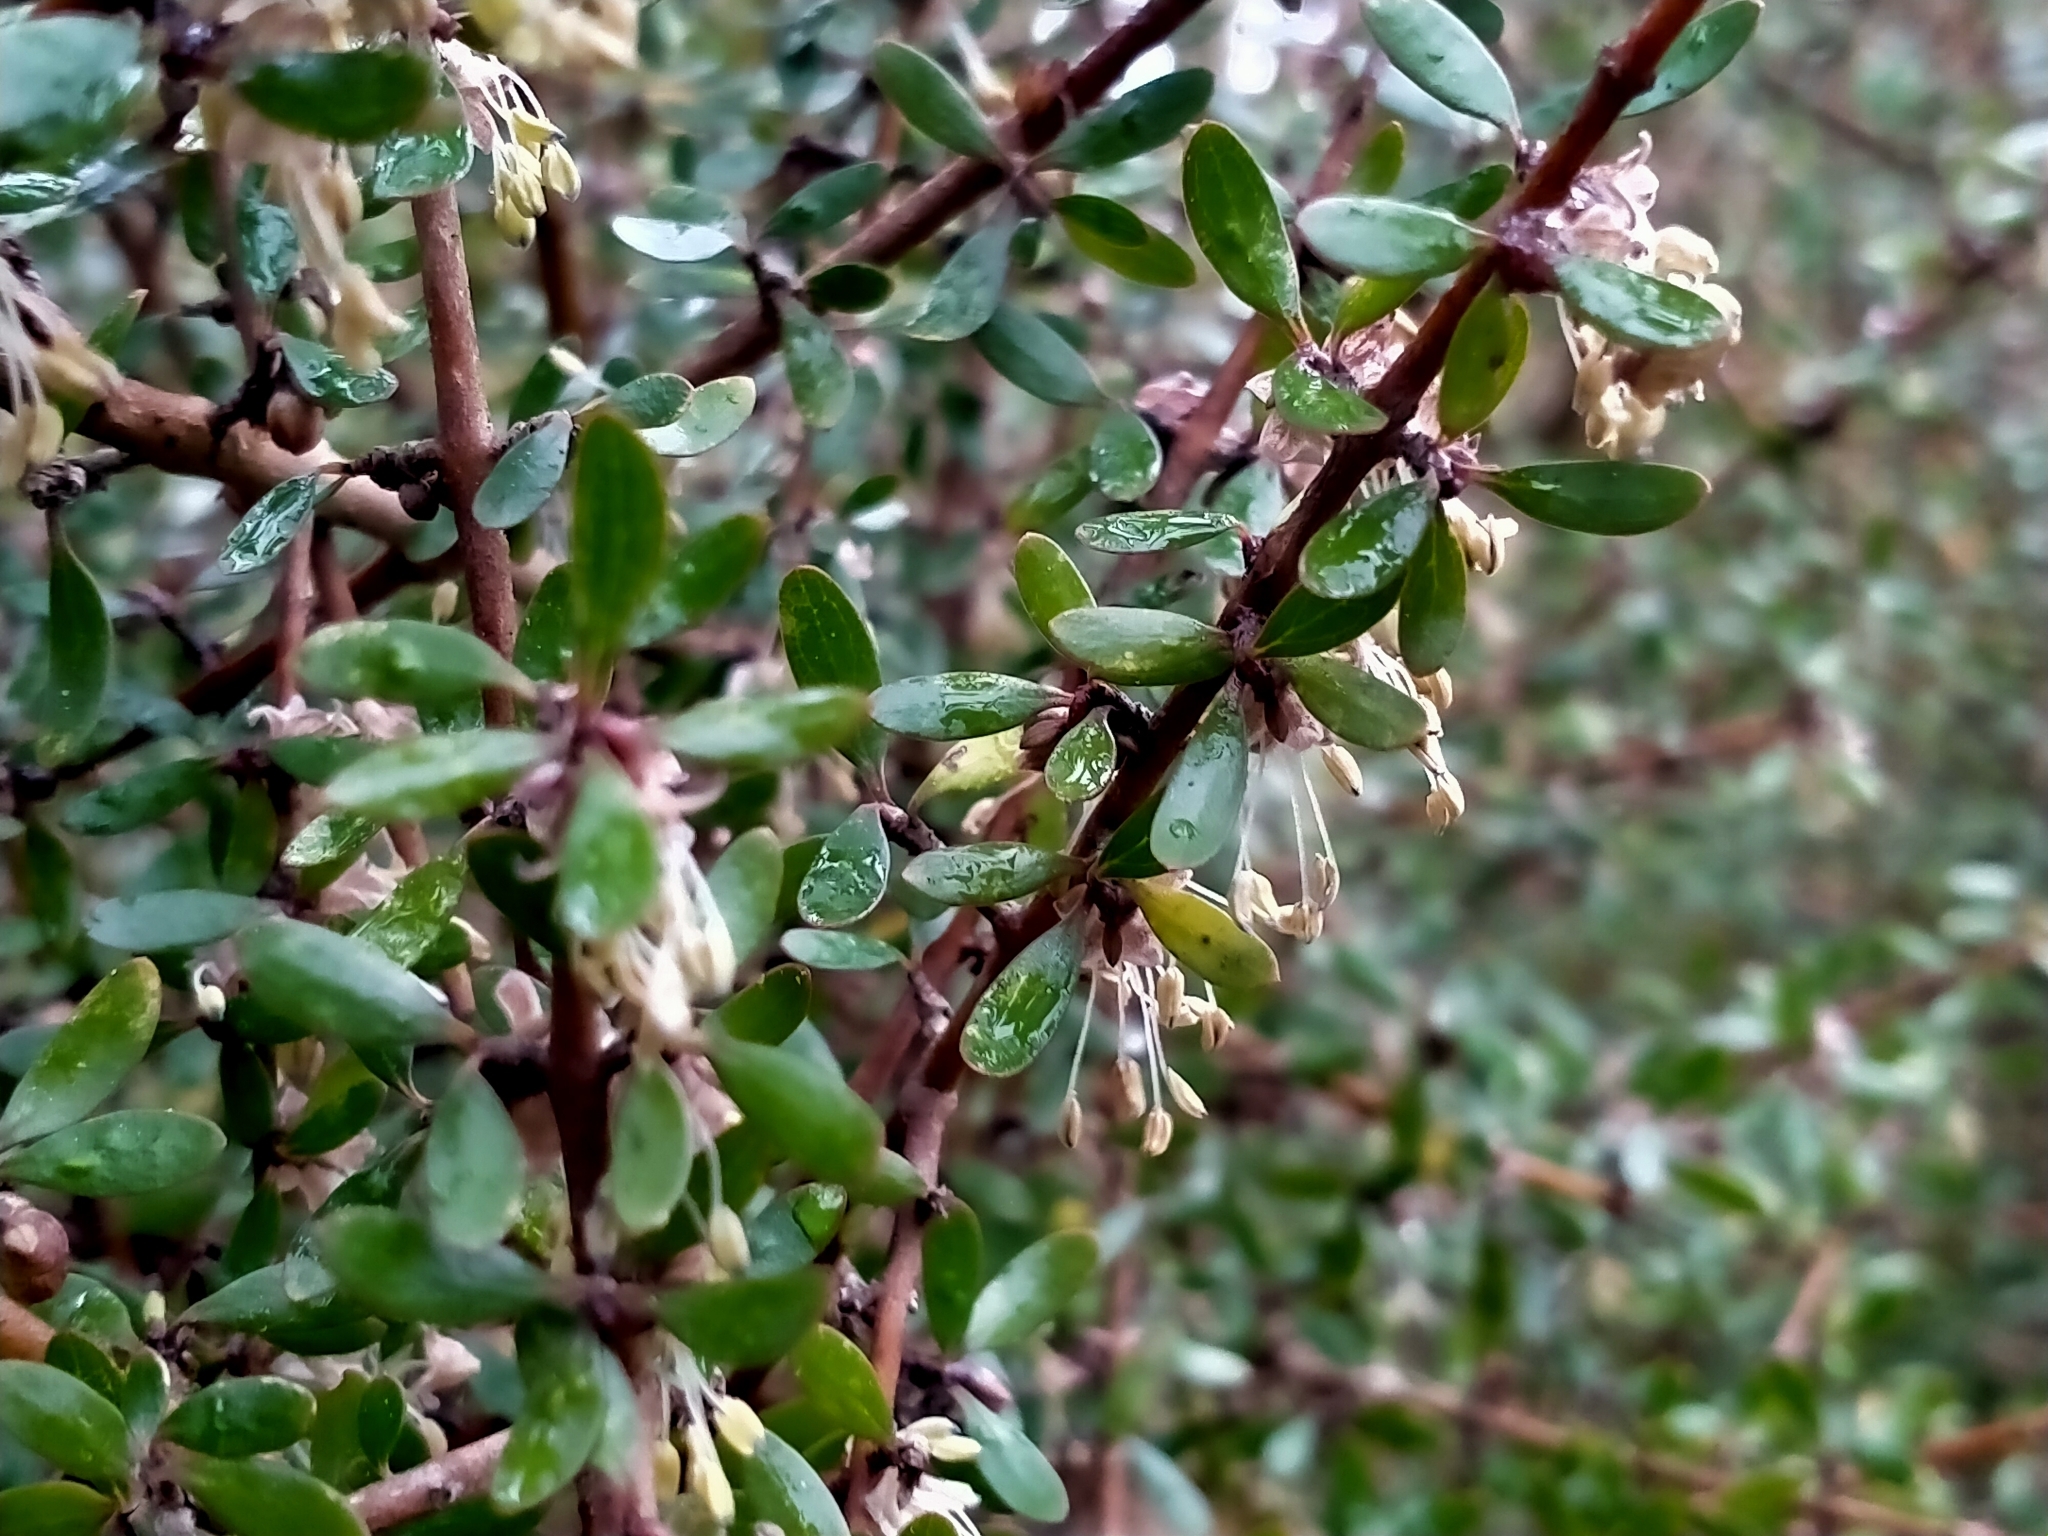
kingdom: Plantae
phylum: Tracheophyta
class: Magnoliopsida
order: Gentianales
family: Rubiaceae
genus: Coprosma
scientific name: Coprosma propinqua
